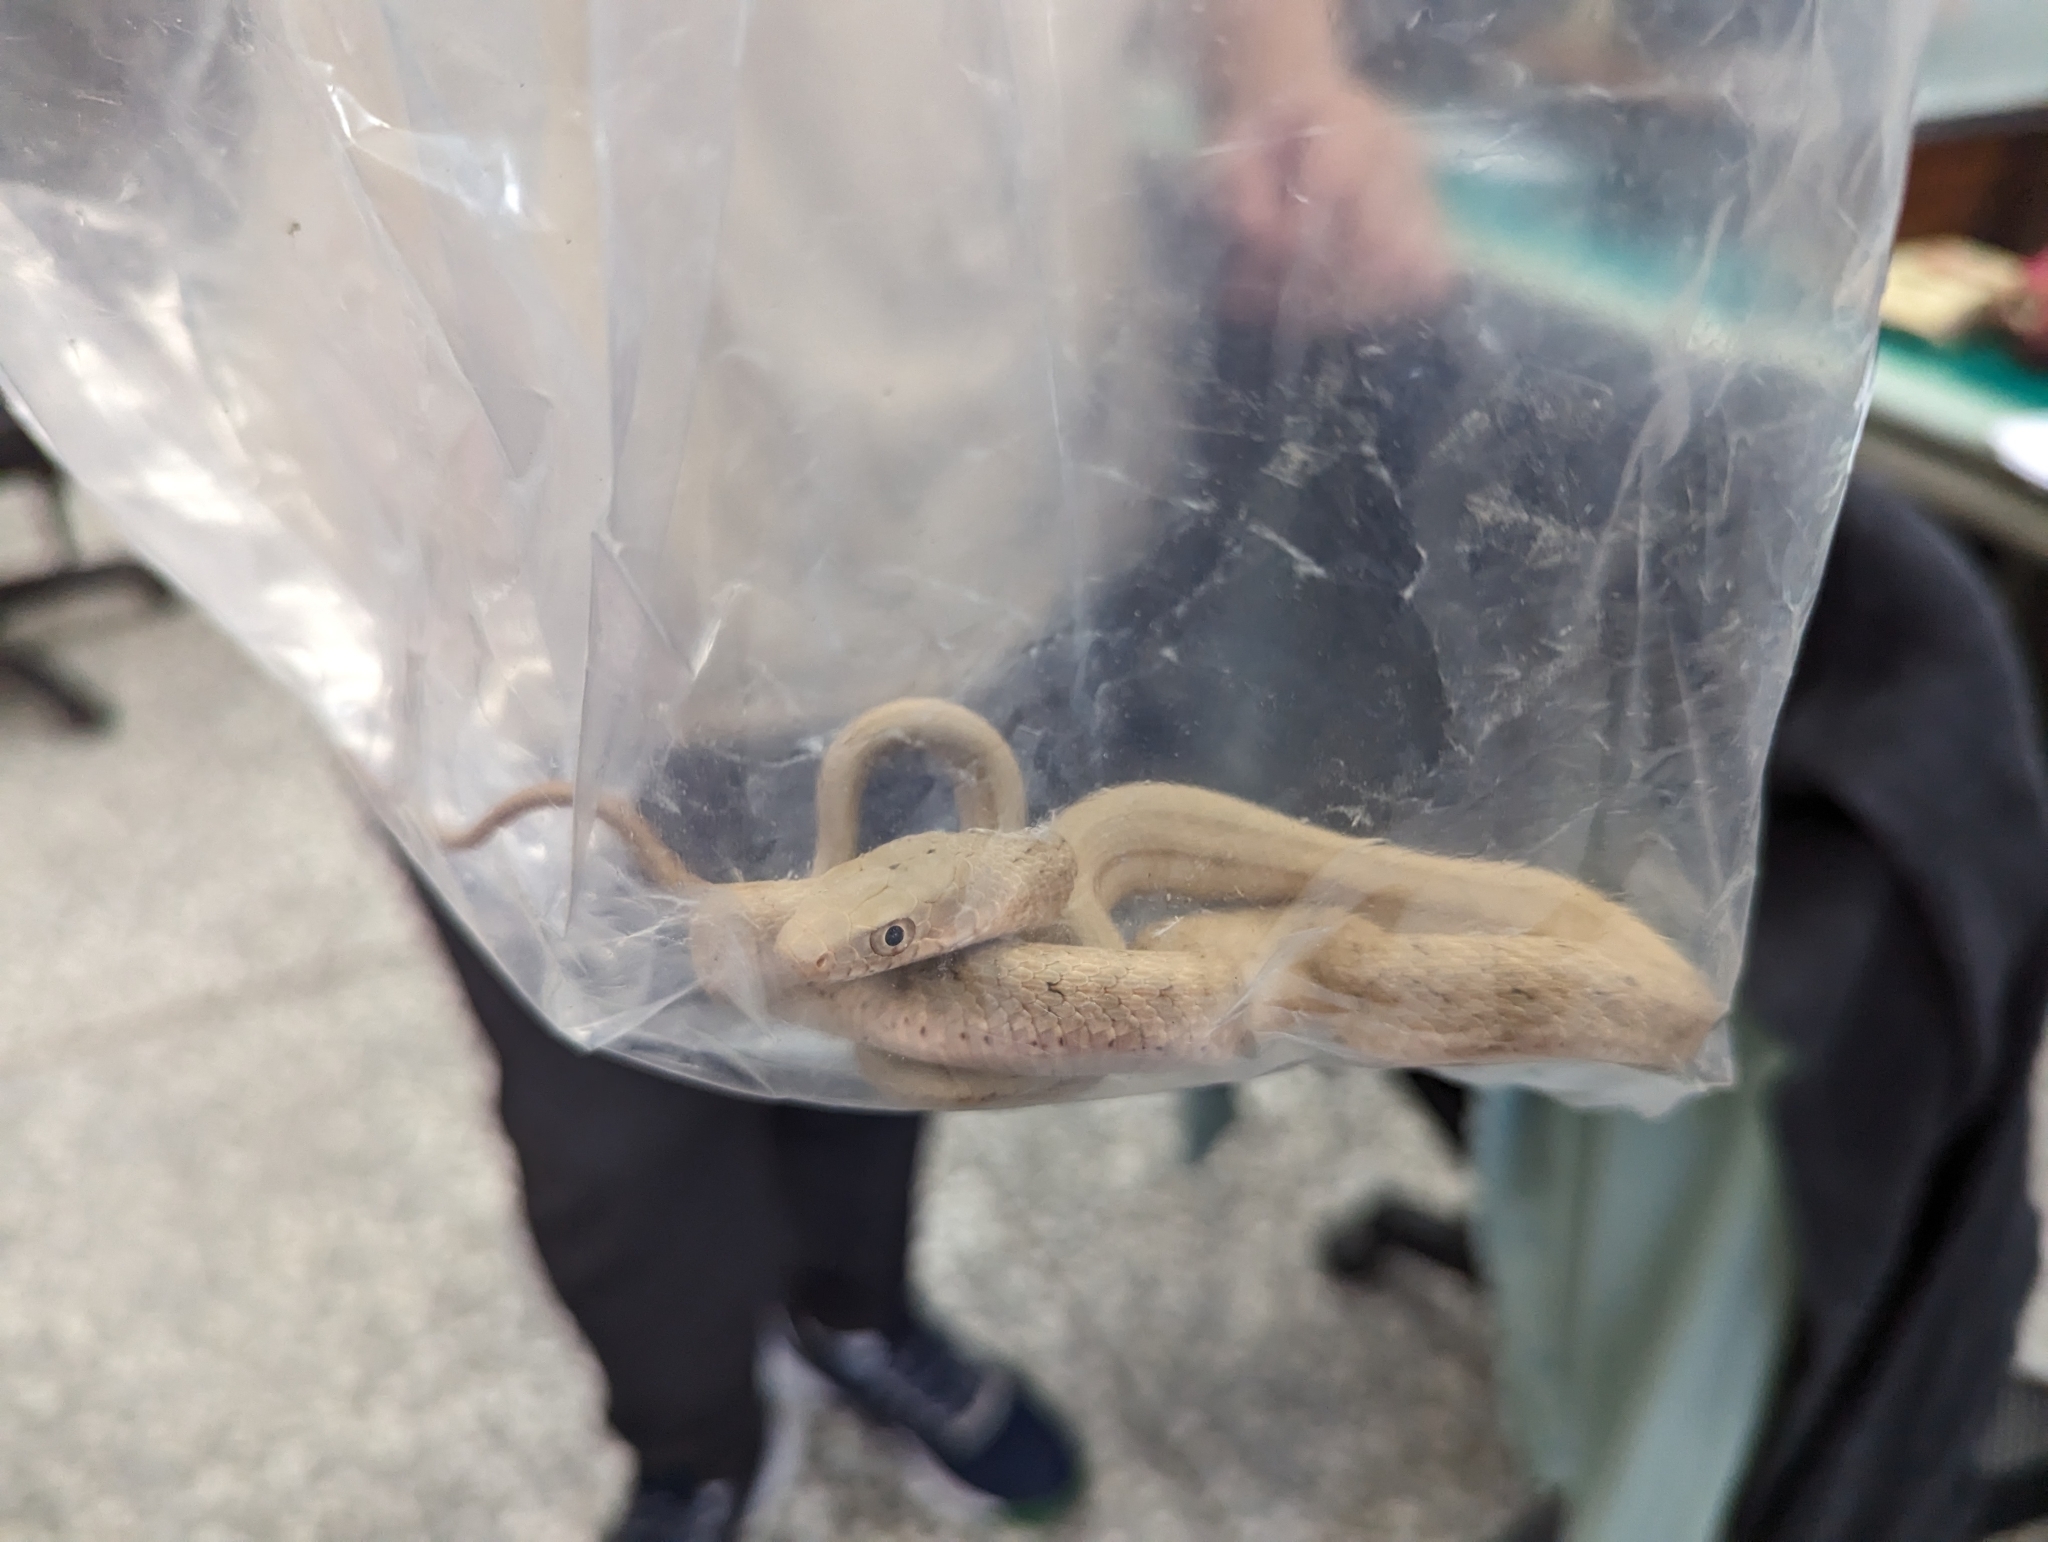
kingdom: Animalia
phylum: Chordata
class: Squamata
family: Colubridae
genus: Elaphe
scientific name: Elaphe carinata
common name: Taiwan stink snake
